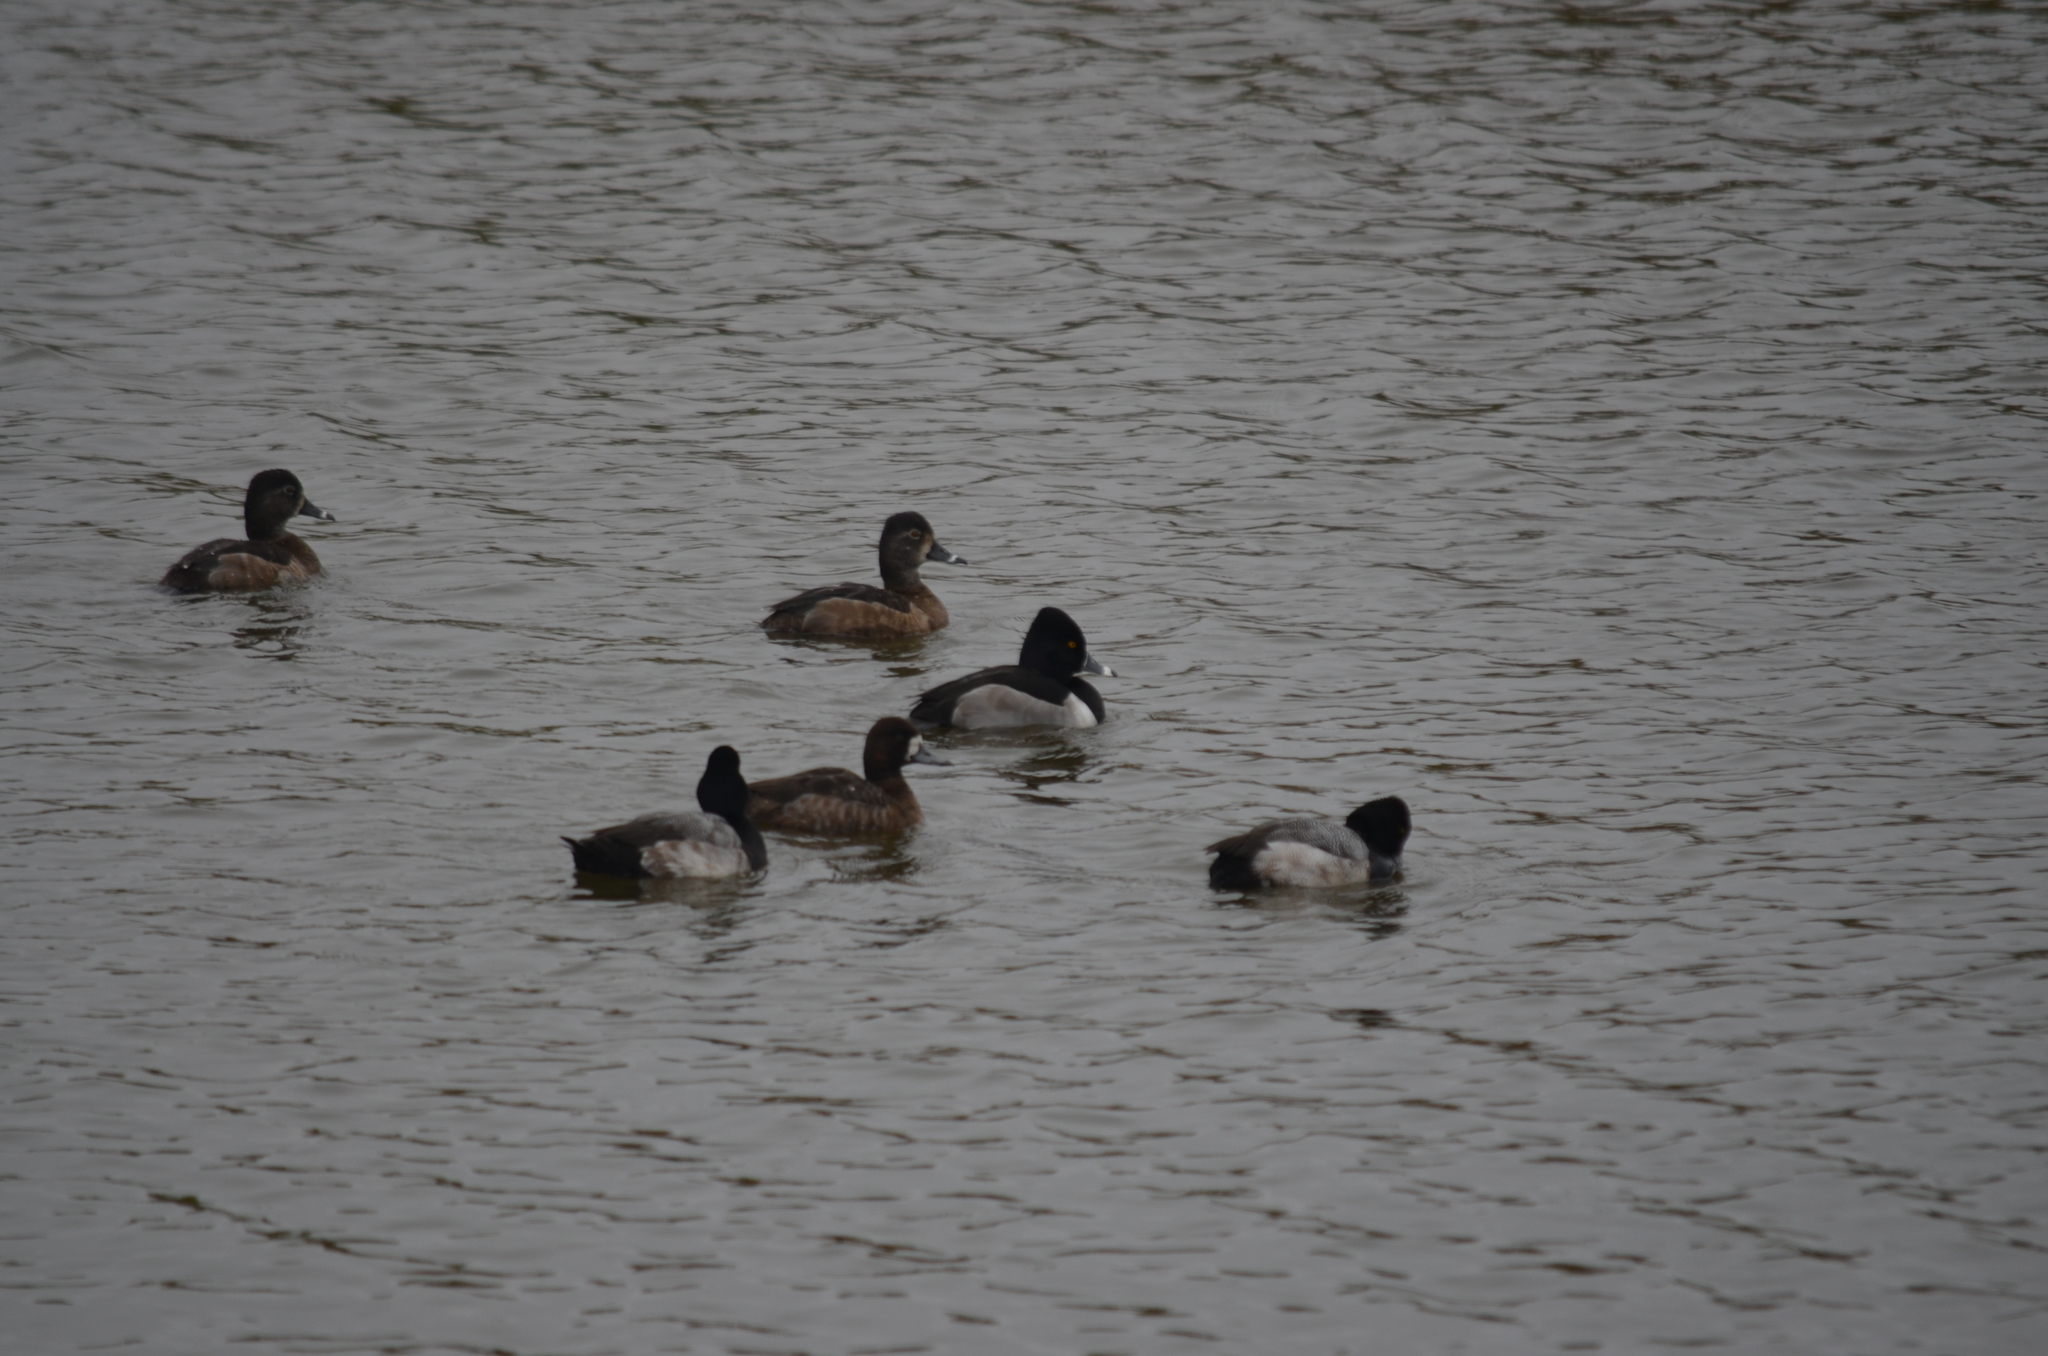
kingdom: Animalia
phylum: Chordata
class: Aves
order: Anseriformes
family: Anatidae
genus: Aythya
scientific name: Aythya collaris
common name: Ring-necked duck
